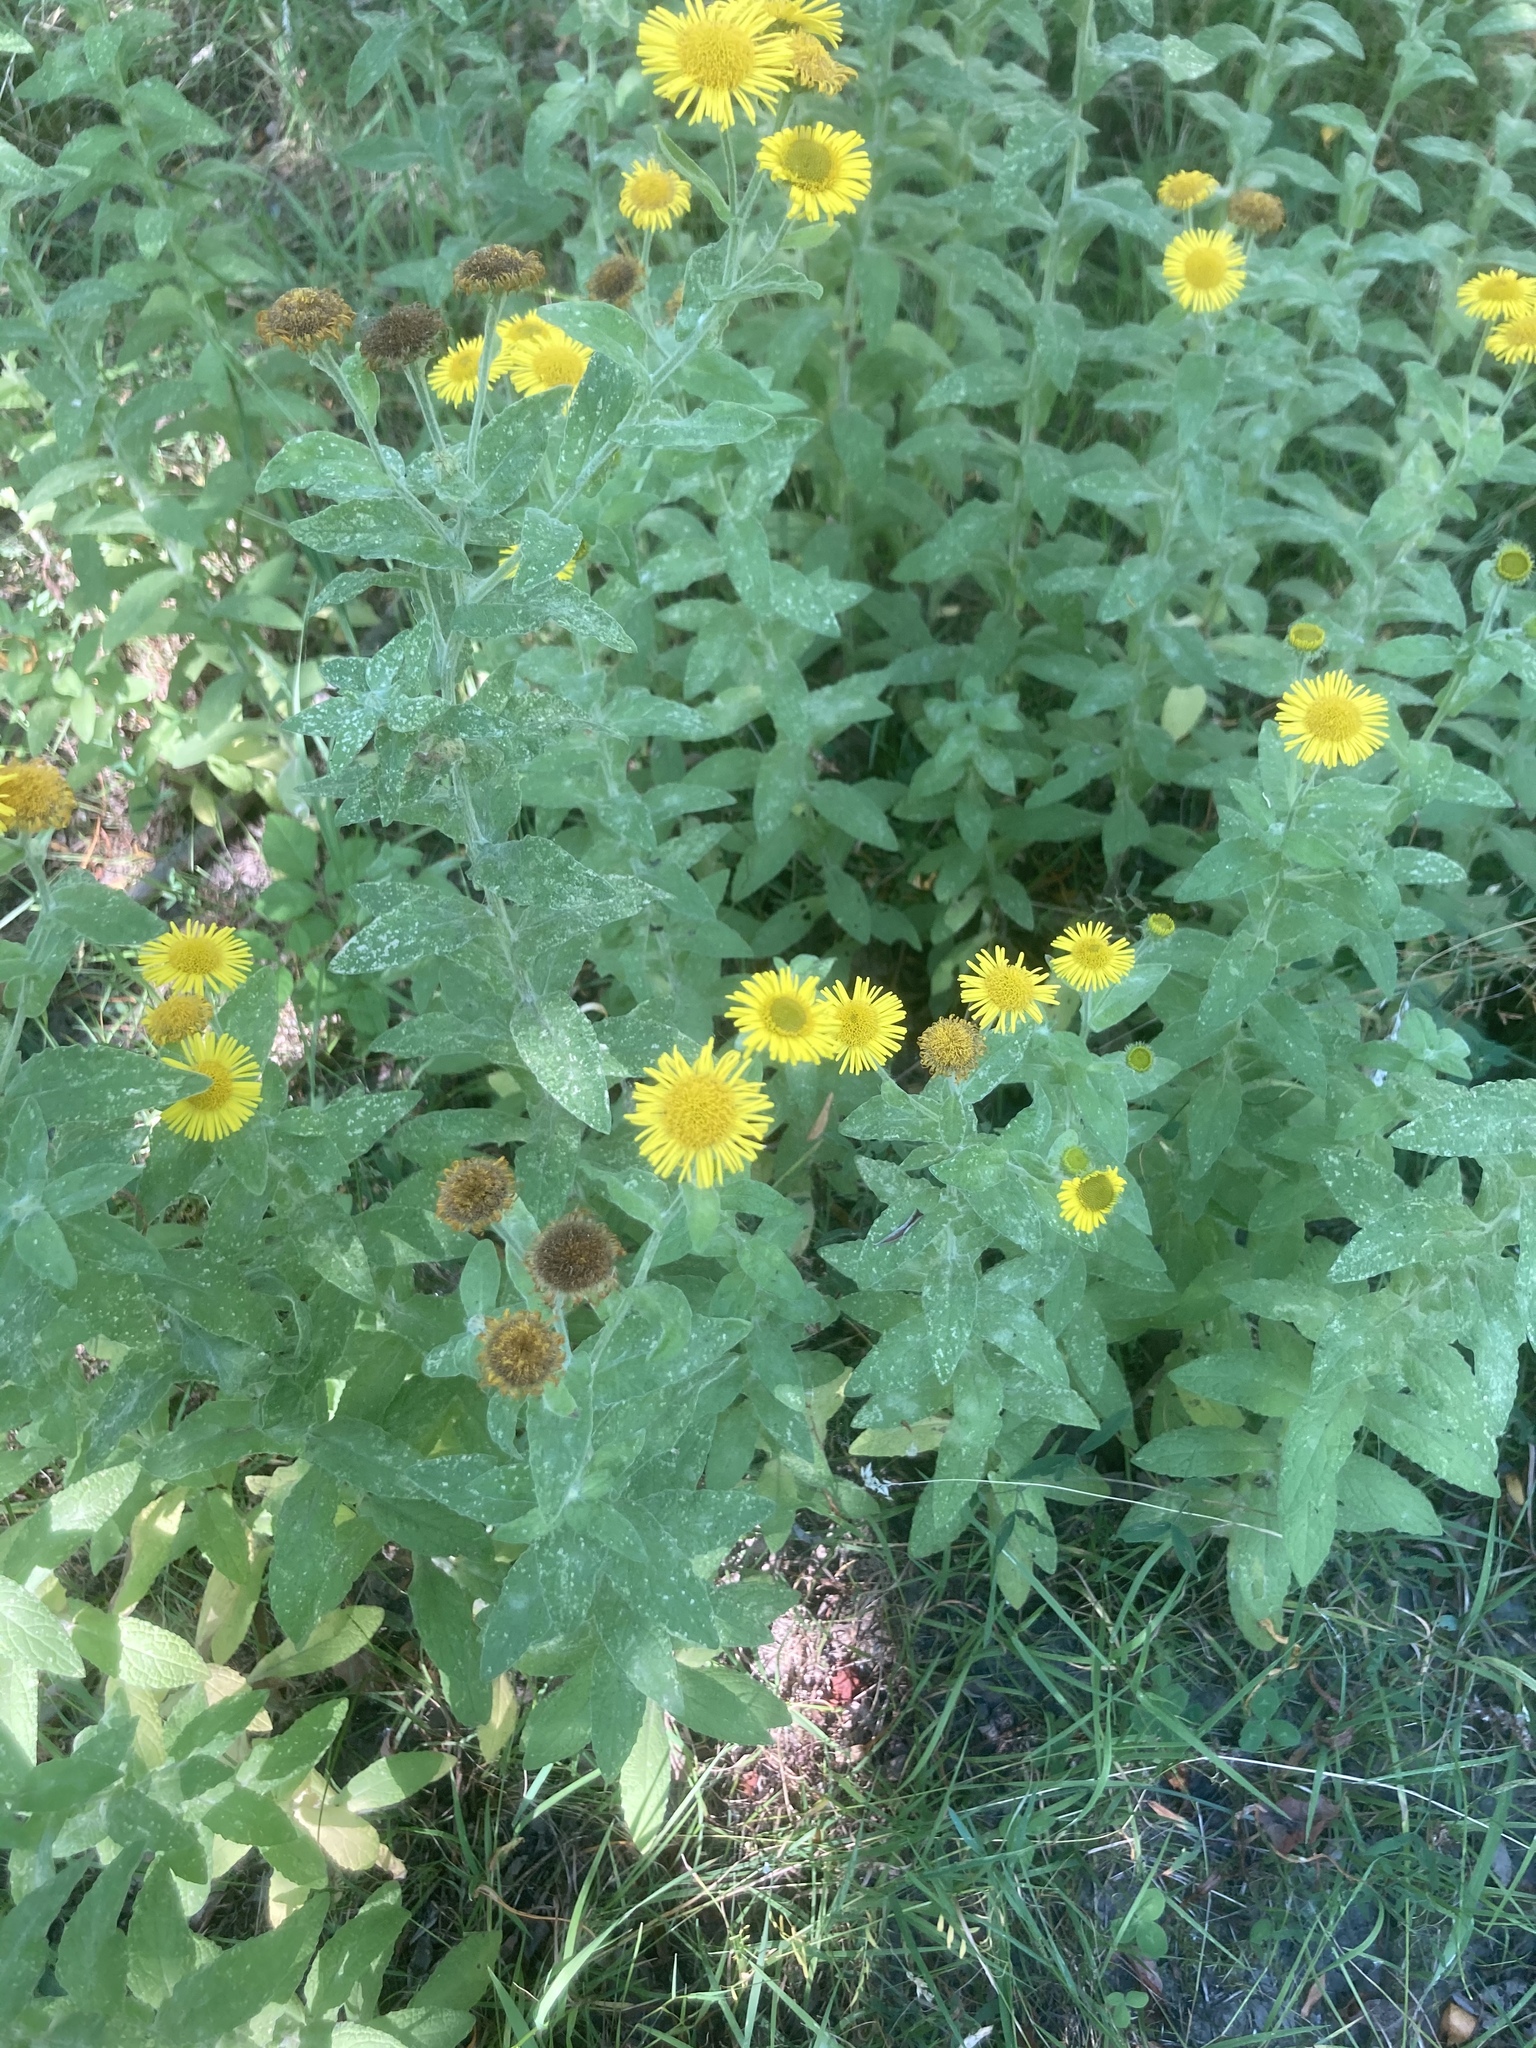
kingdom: Plantae
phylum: Tracheophyta
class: Magnoliopsida
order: Asterales
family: Asteraceae
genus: Pulicaria
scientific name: Pulicaria dysenterica
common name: Common fleabane
